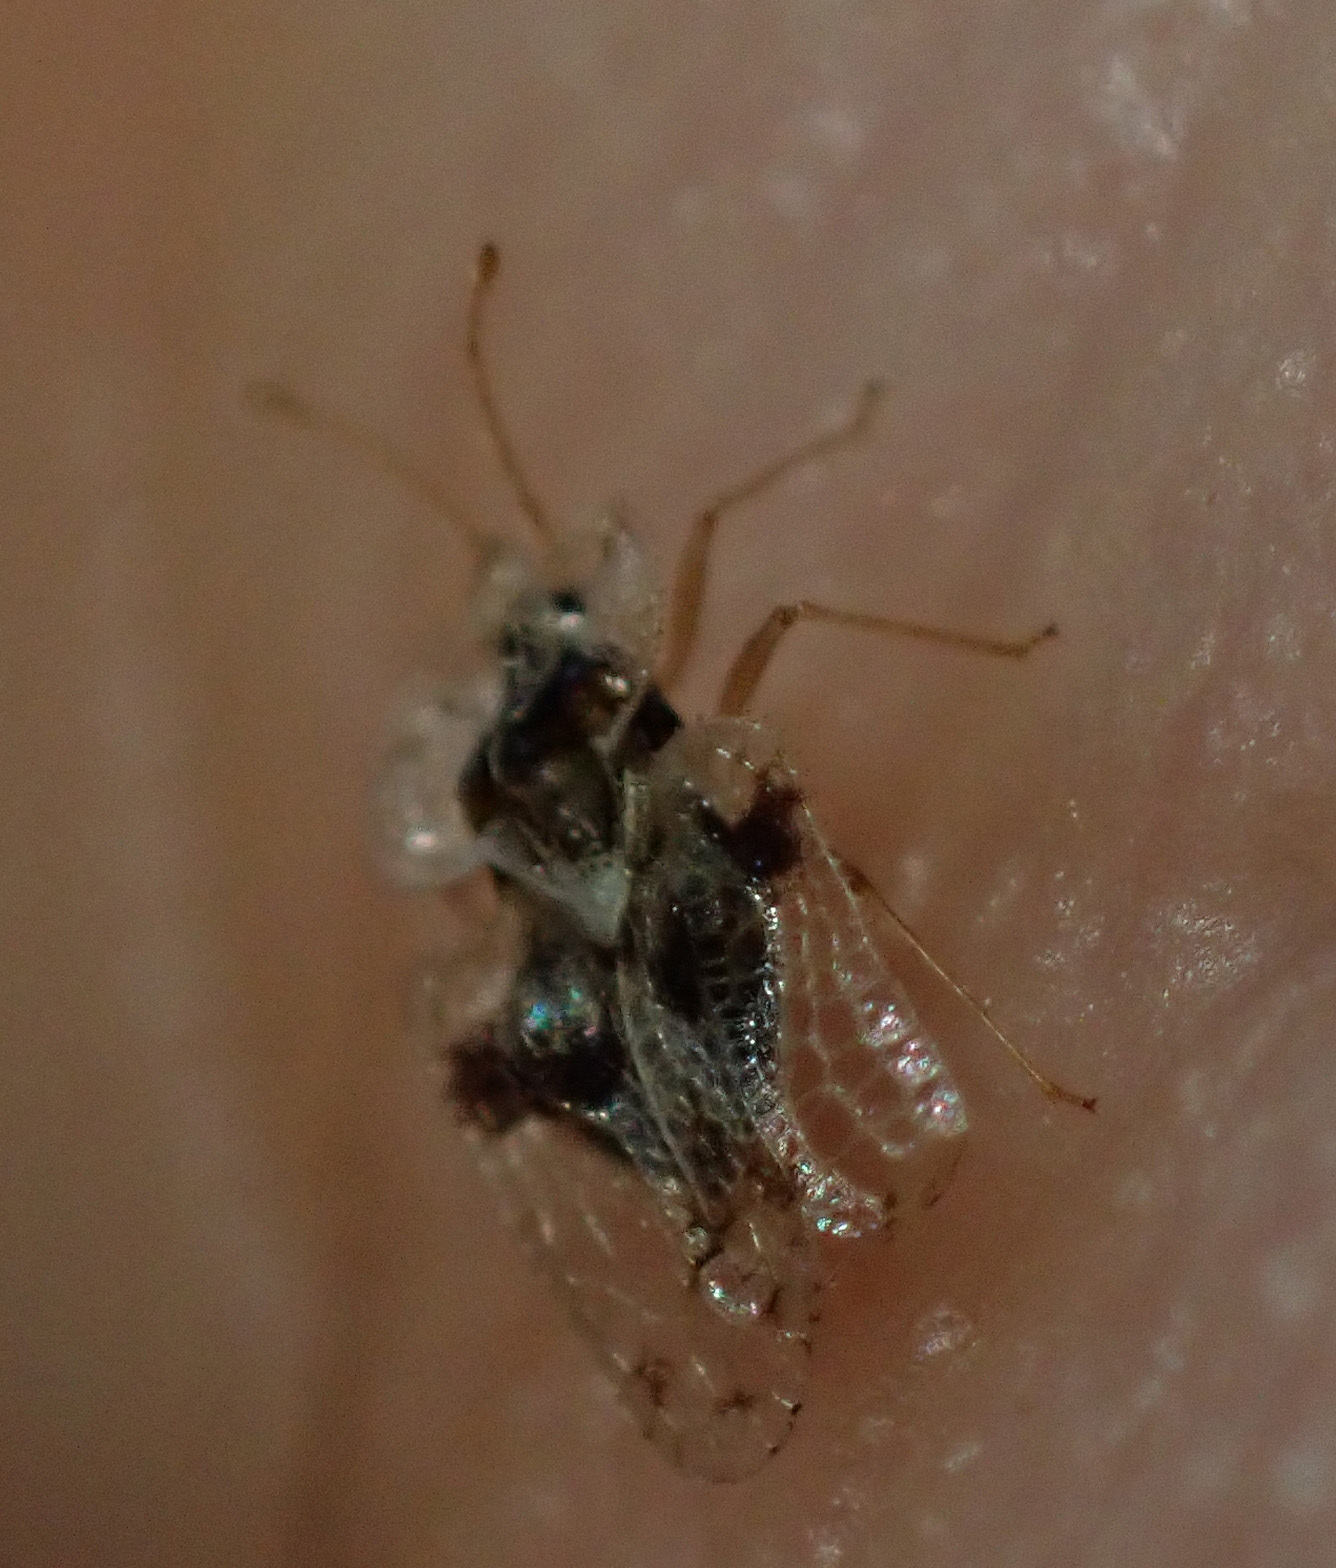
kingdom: Animalia
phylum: Arthropoda
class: Insecta
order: Hemiptera
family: Tingidae
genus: Corythucha
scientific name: Corythucha arcuata
